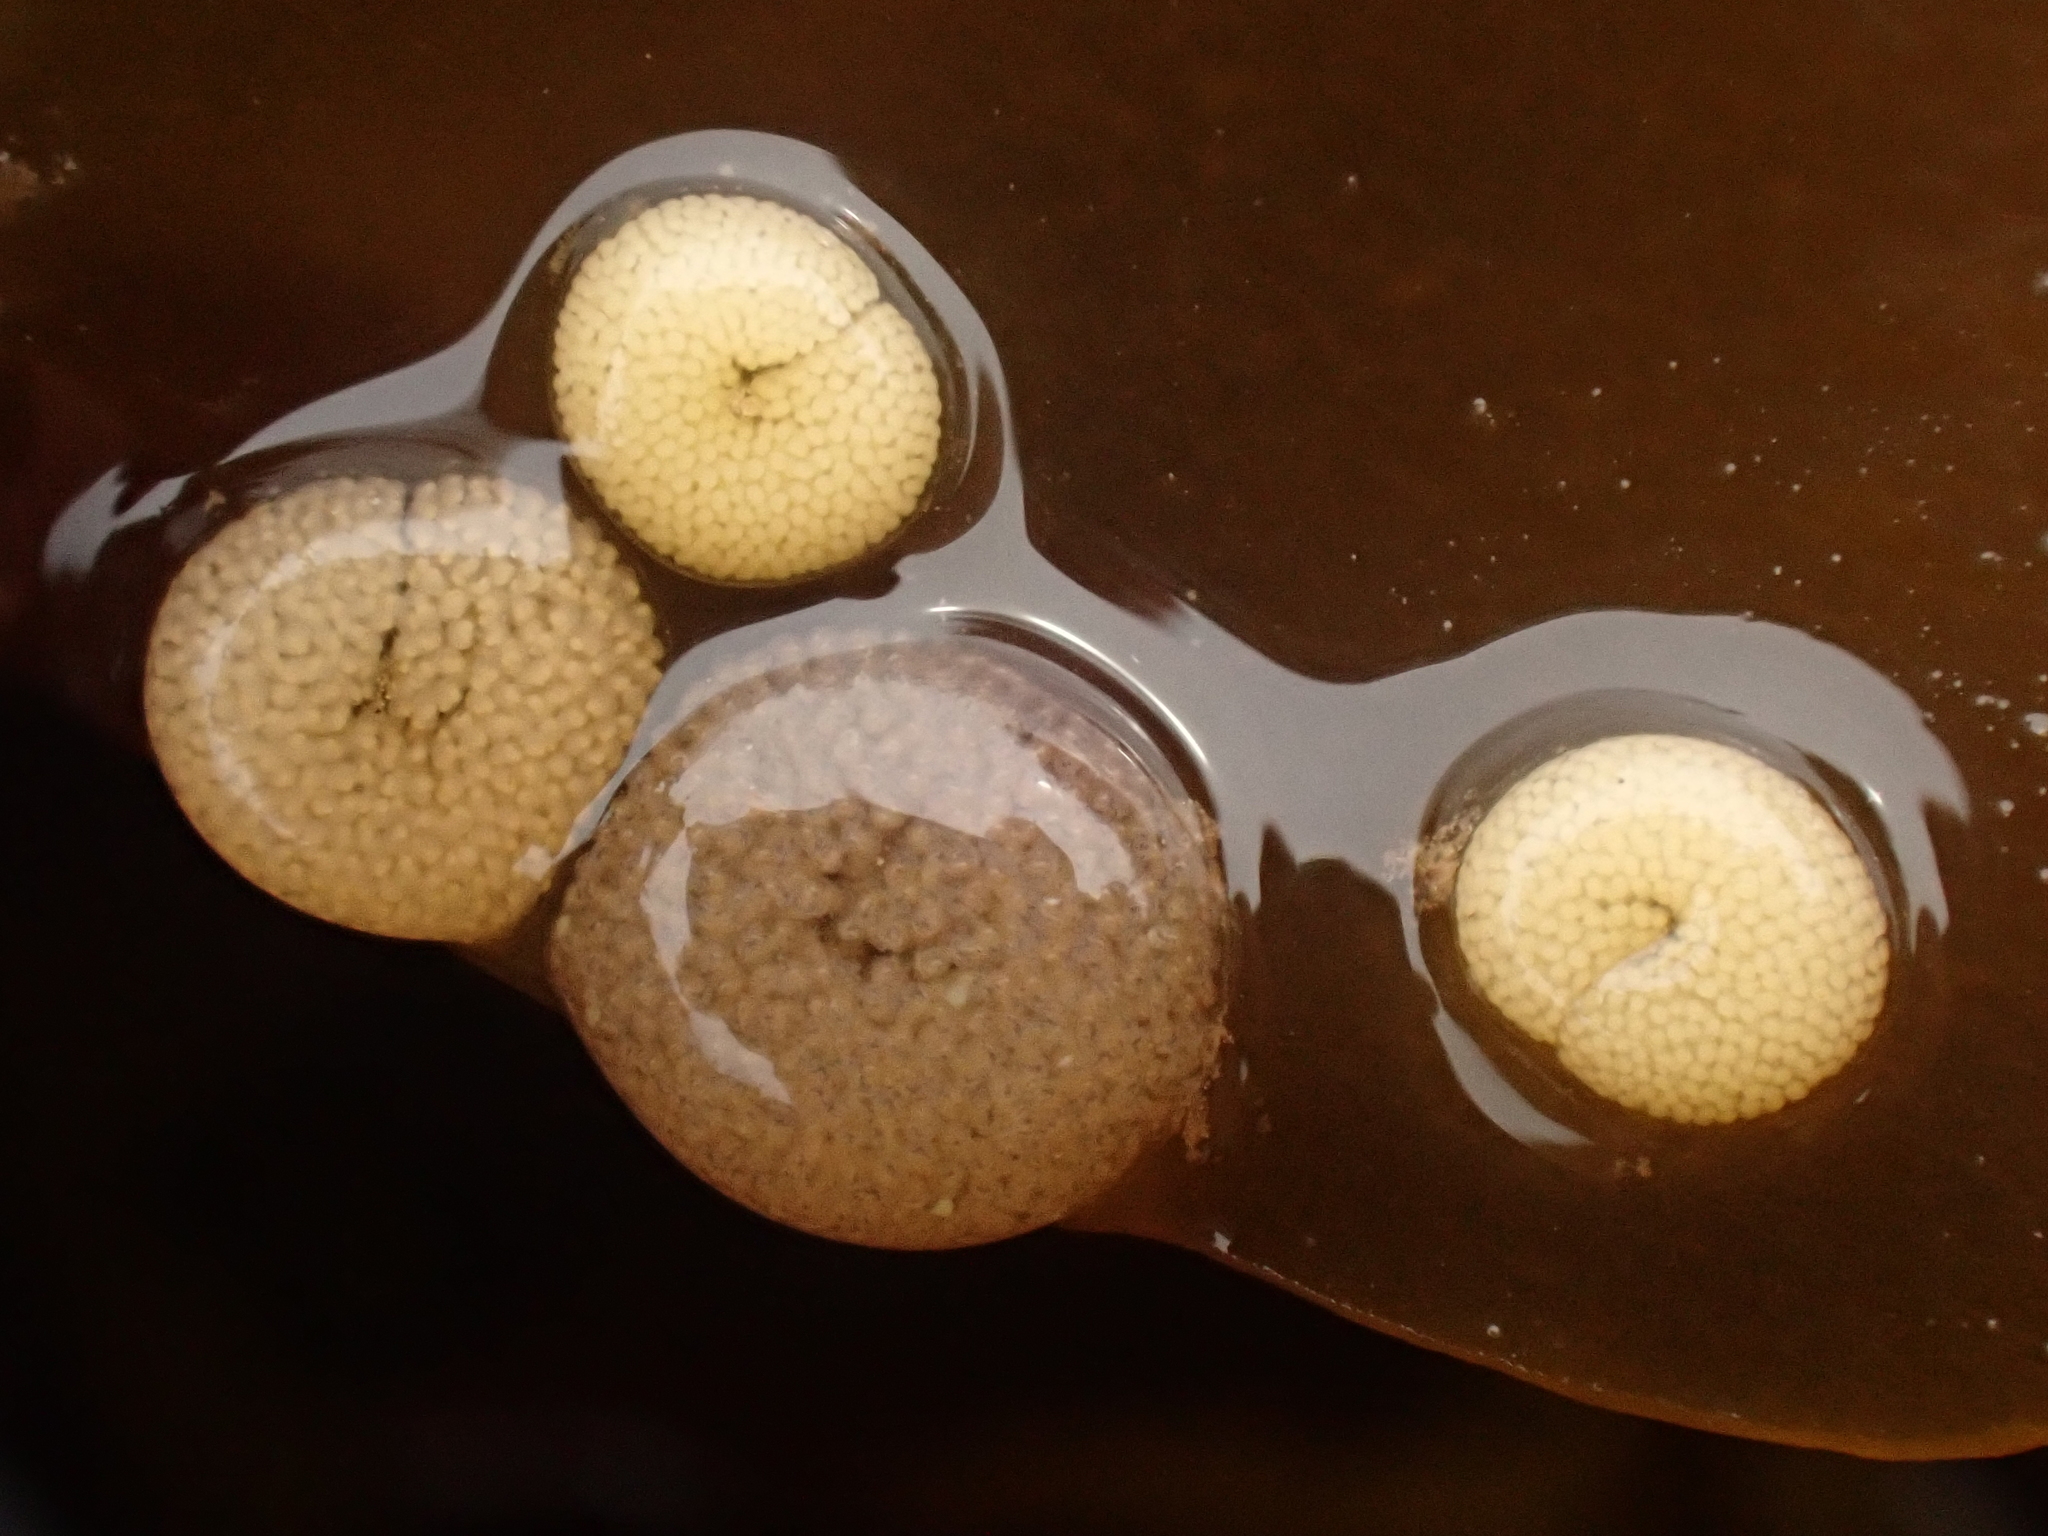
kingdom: Animalia
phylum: Mollusca
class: Gastropoda
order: Littorinimorpha
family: Littorinidae
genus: Lacuna
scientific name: Lacuna vincta
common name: Banded chink shell
